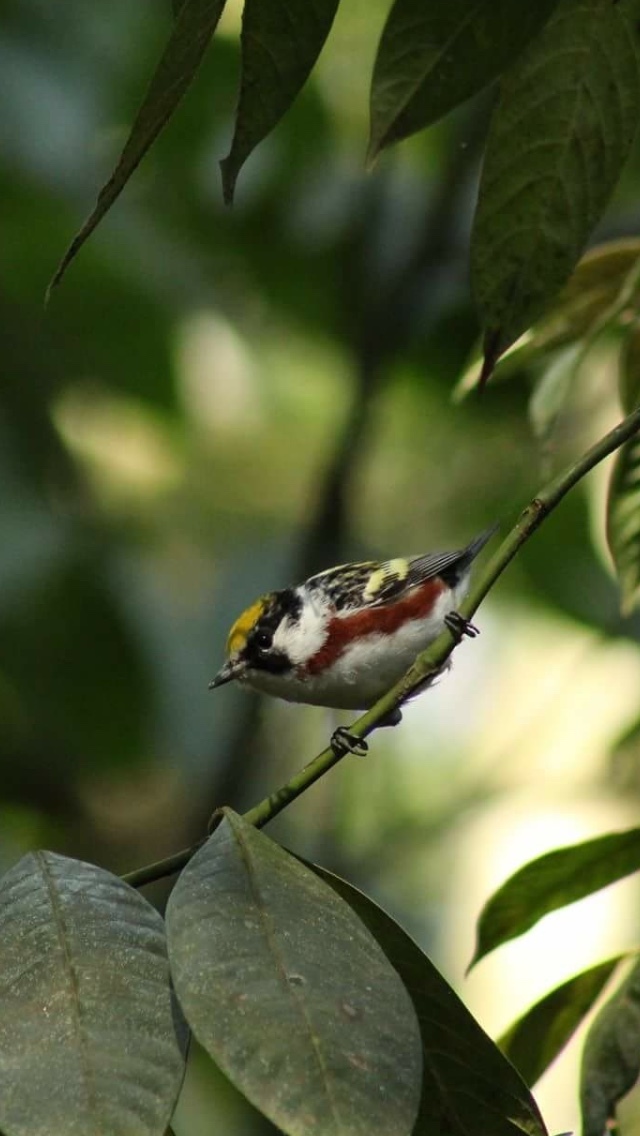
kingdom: Animalia
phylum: Chordata
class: Aves
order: Passeriformes
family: Parulidae
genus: Setophaga
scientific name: Setophaga pensylvanica
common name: Chestnut-sided warbler
